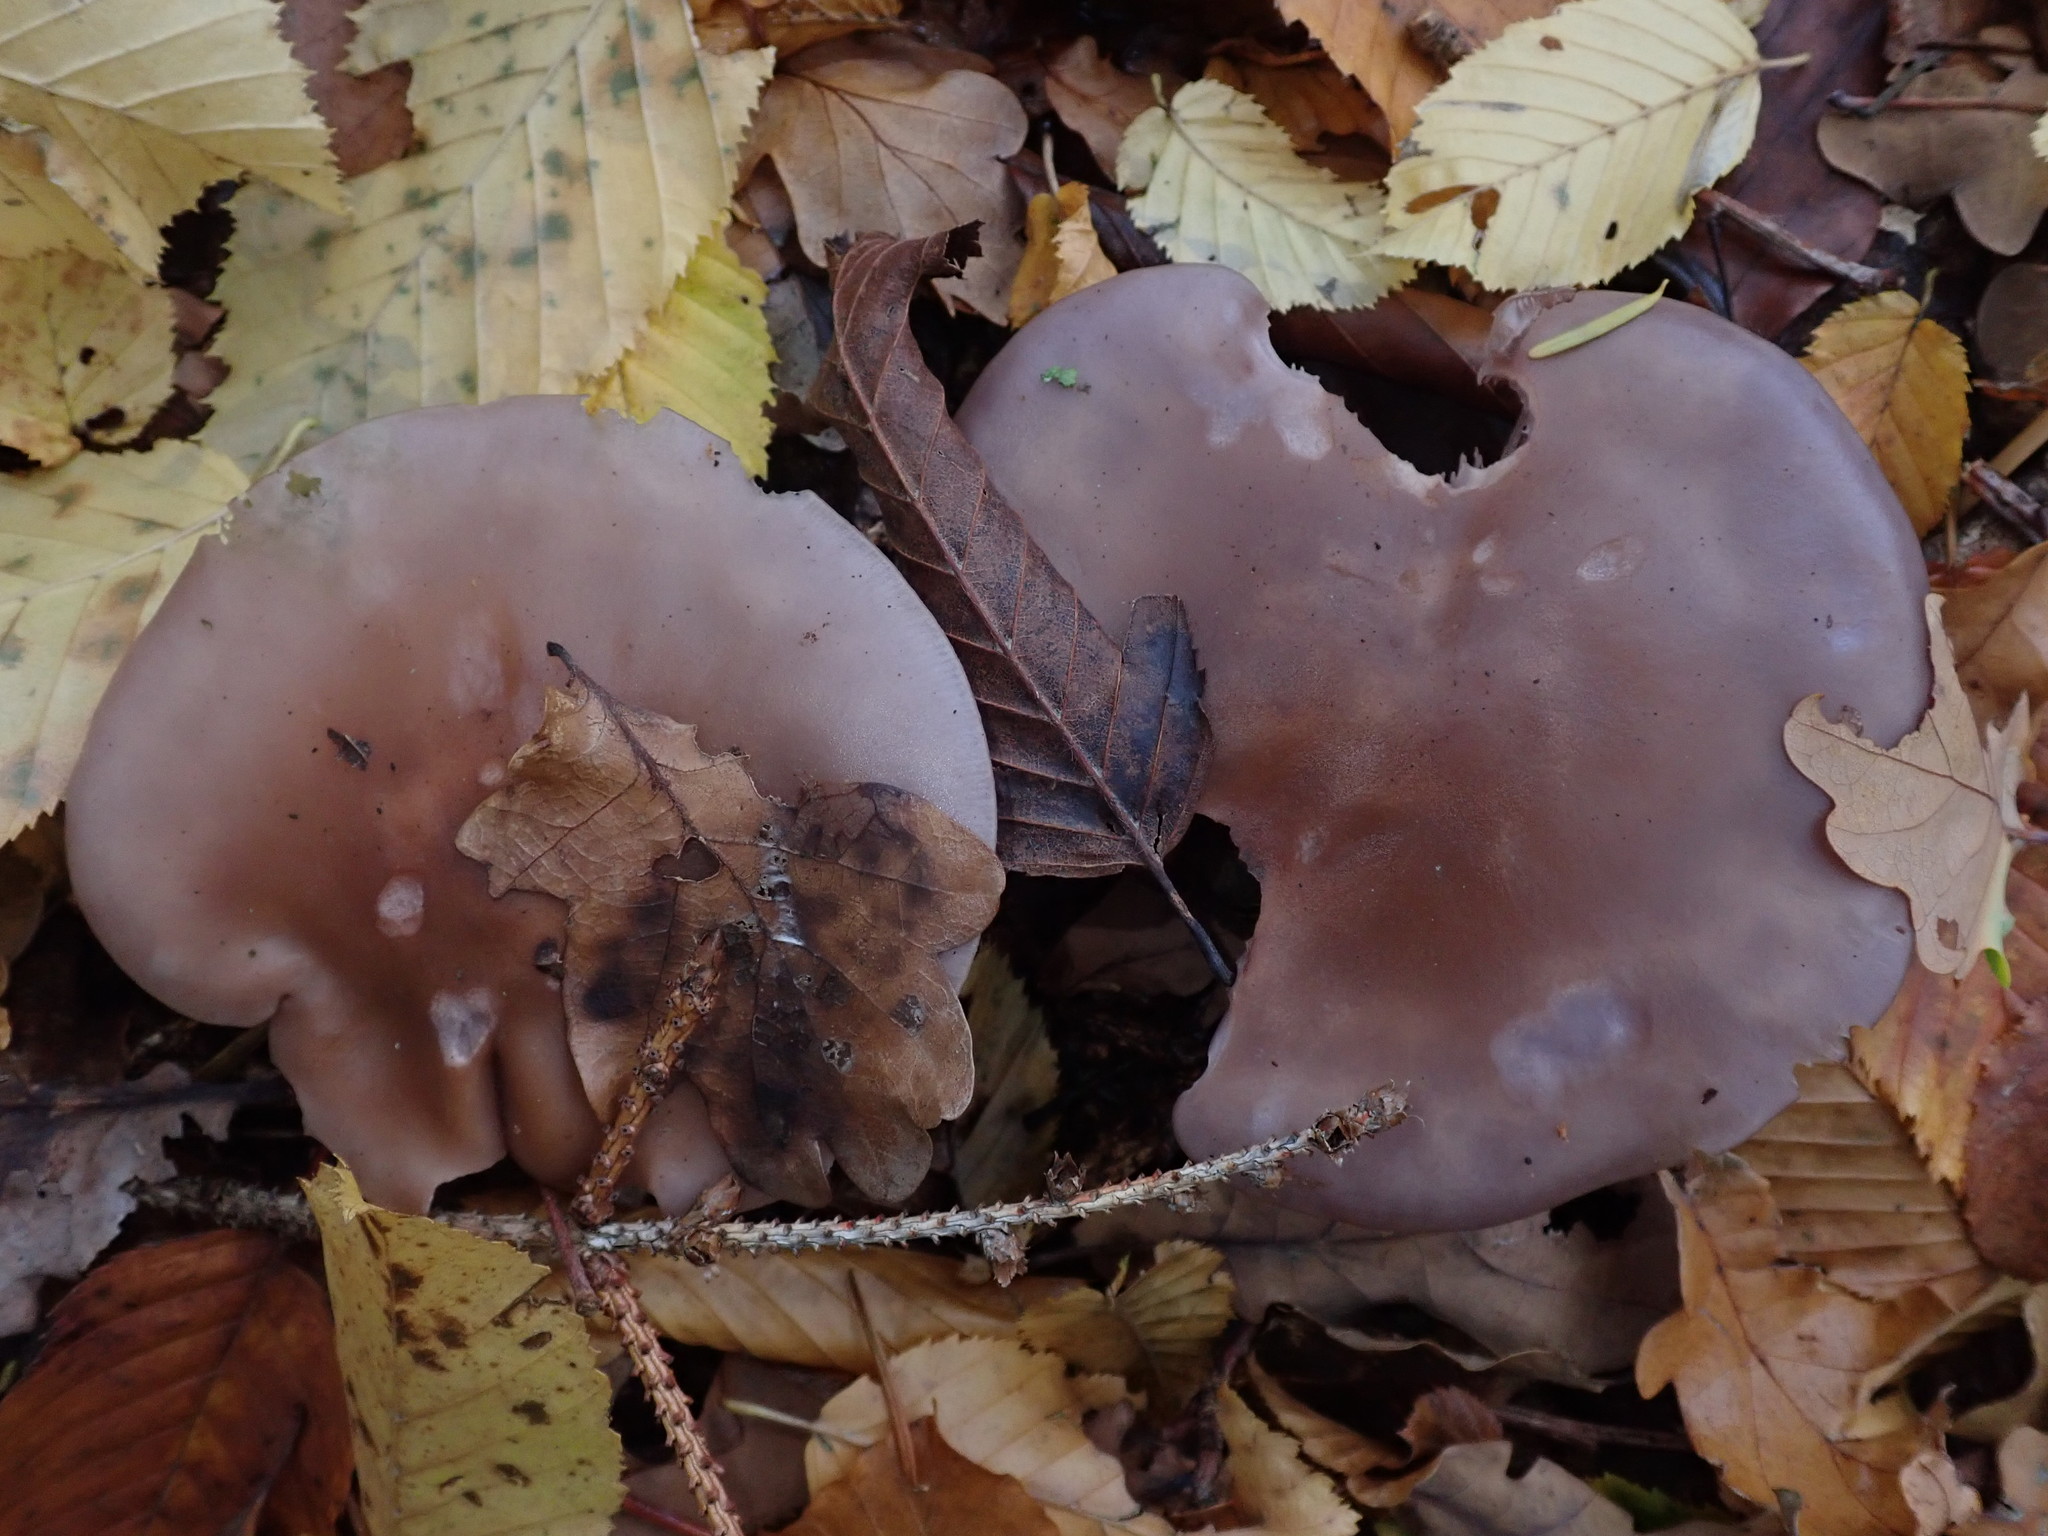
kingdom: Fungi
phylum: Basidiomycota
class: Agaricomycetes
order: Agaricales
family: Tricholomataceae
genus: Collybia
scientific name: Collybia
